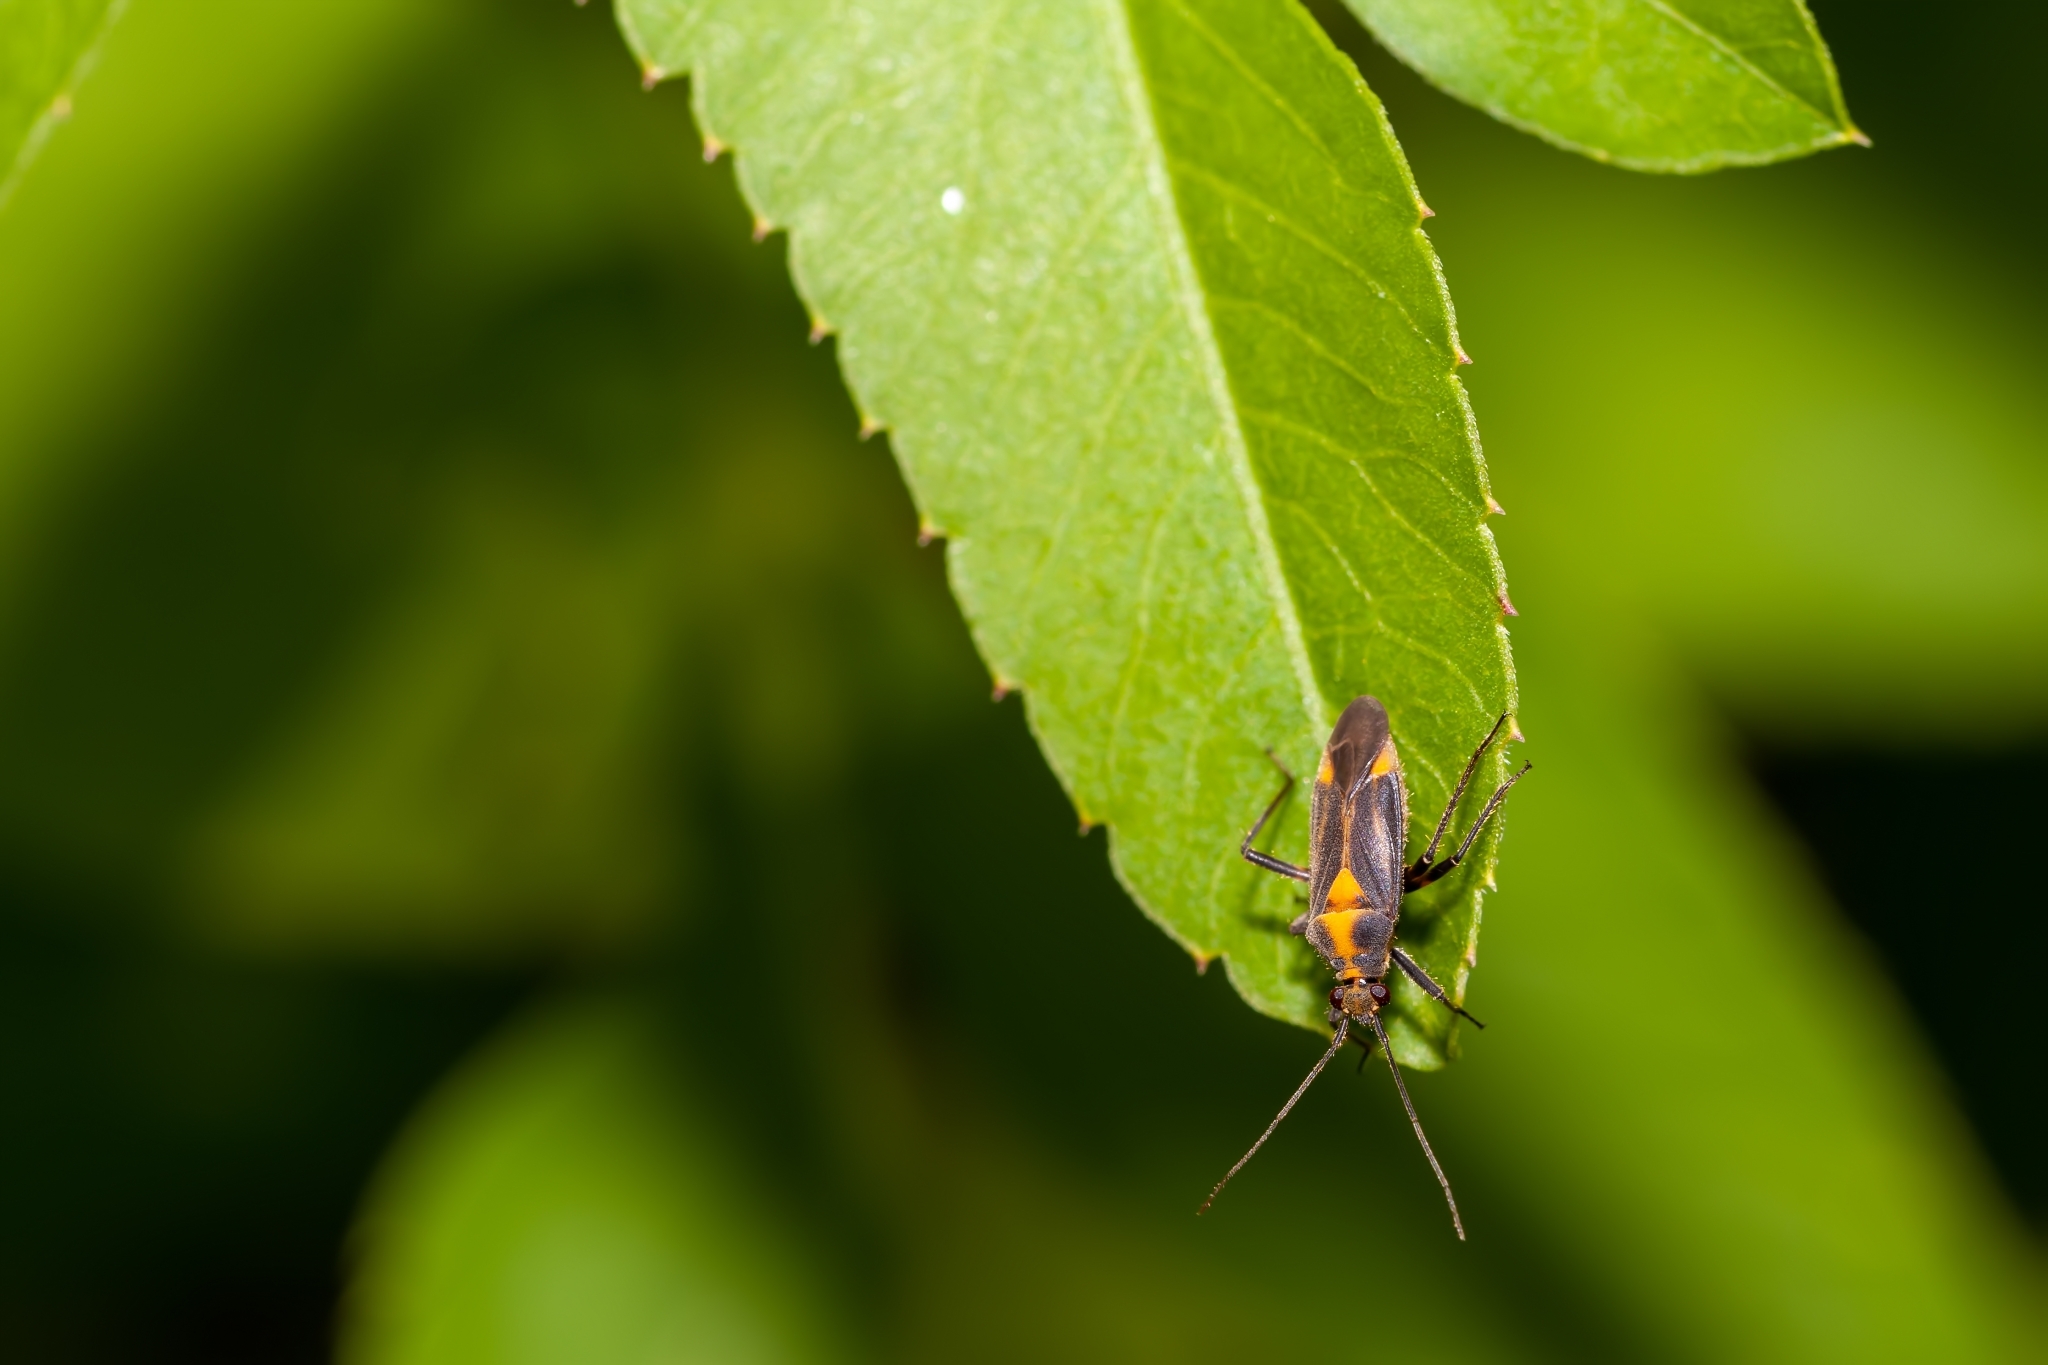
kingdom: Animalia
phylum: Arthropoda
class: Insecta
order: Hemiptera
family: Miridae
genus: Prepops
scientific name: Prepops cruciferus
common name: Plant bug
